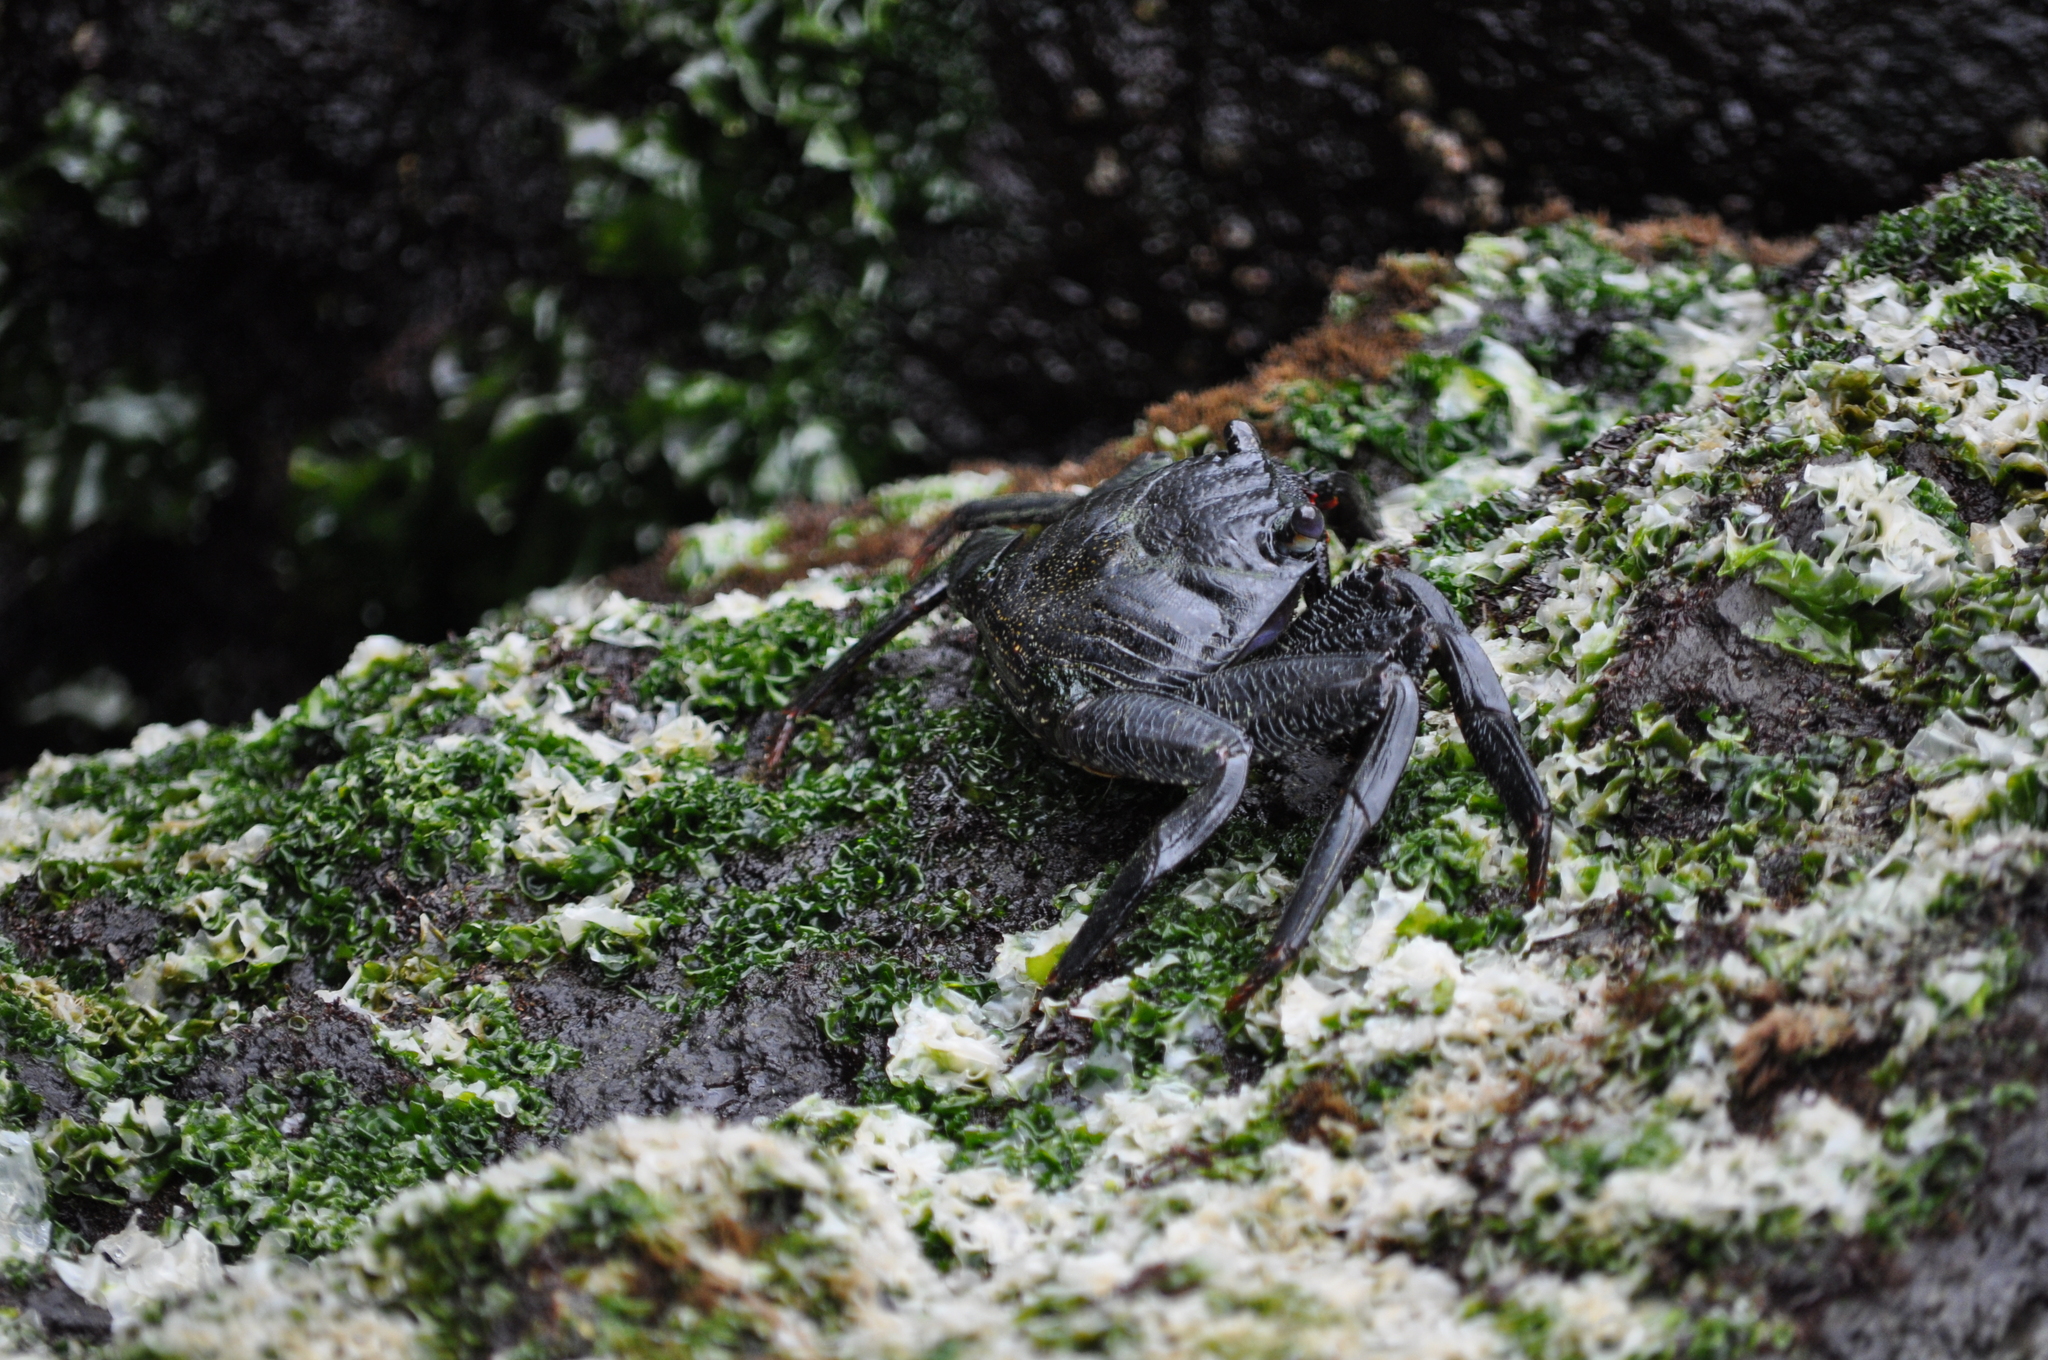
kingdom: Animalia
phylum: Arthropoda
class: Malacostraca
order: Decapoda
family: Grapsidae
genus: Grapsus
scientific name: Grapsus adscensionis
